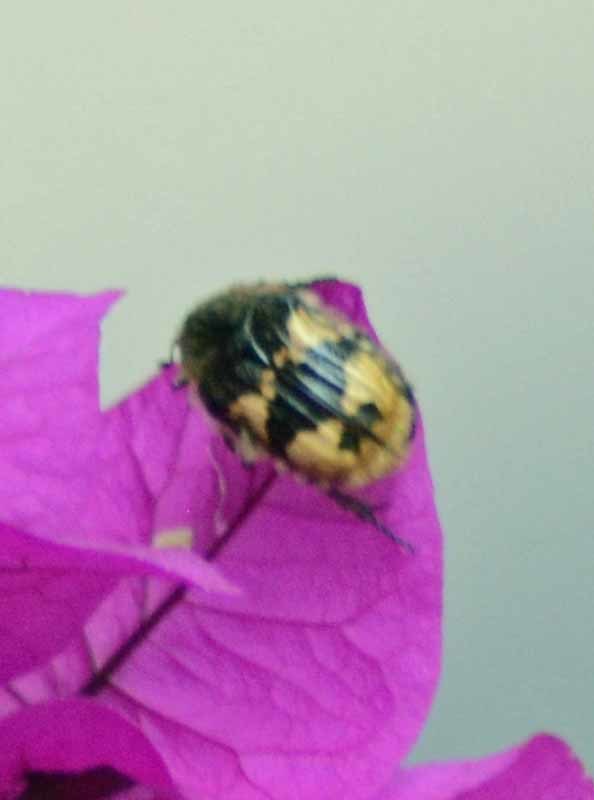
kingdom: Animalia
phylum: Arthropoda
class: Insecta
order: Coleoptera
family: Scarabaeidae
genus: Euphoria
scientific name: Euphoria basalis
